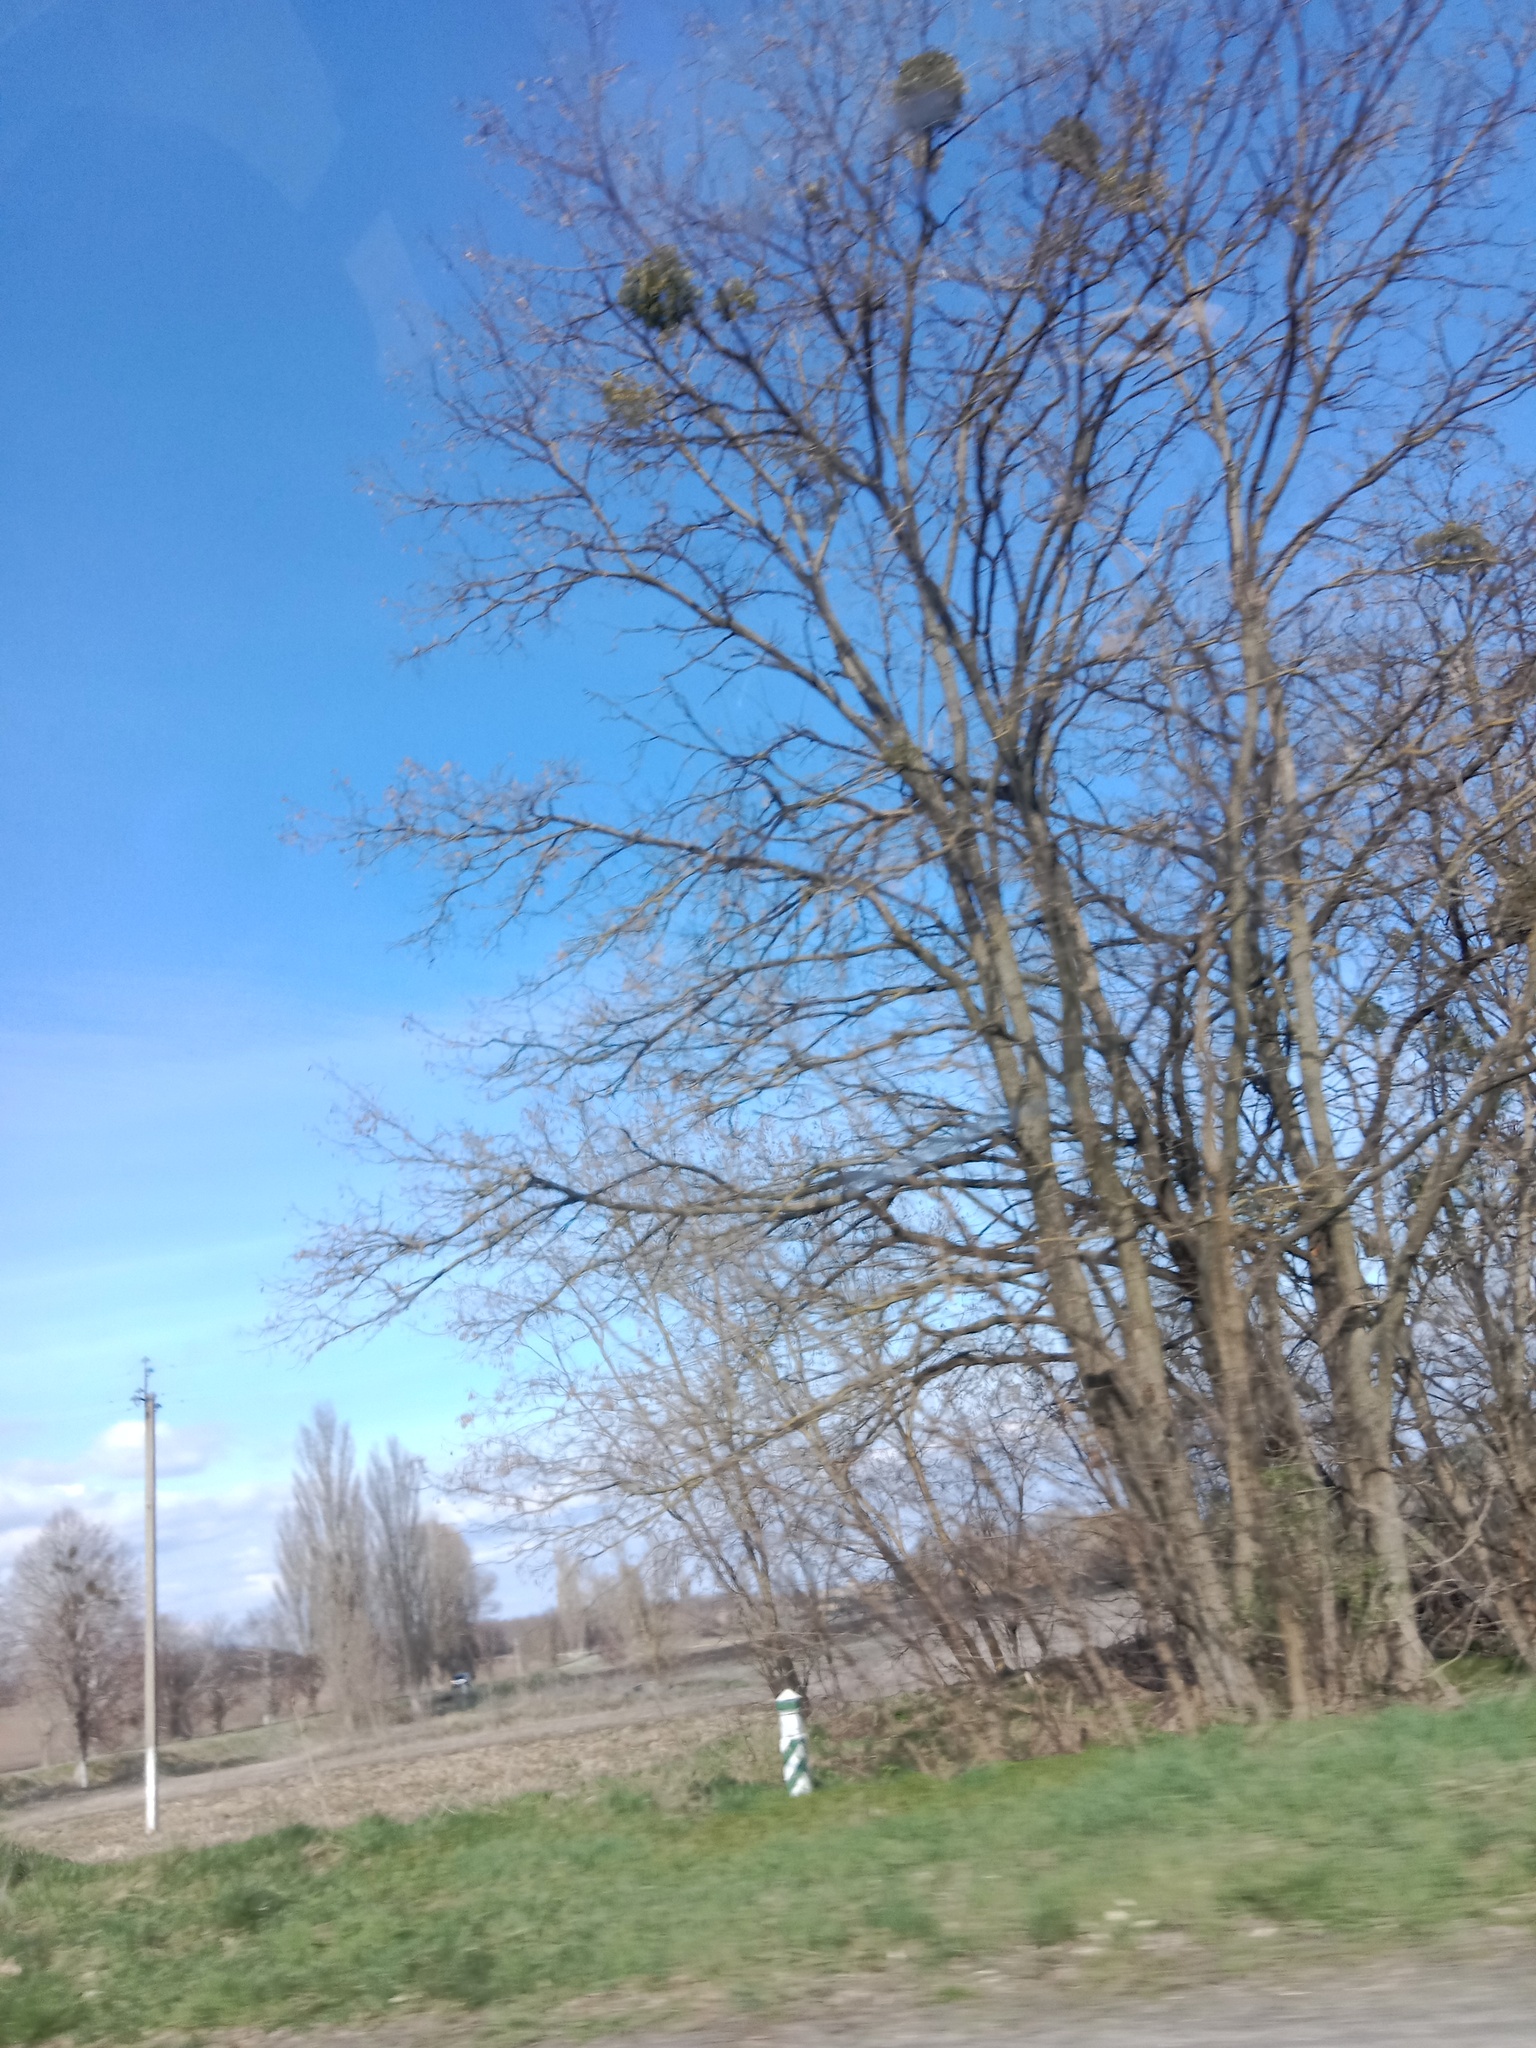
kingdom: Plantae
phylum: Tracheophyta
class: Magnoliopsida
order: Santalales
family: Viscaceae
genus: Viscum
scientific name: Viscum album
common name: Mistletoe
